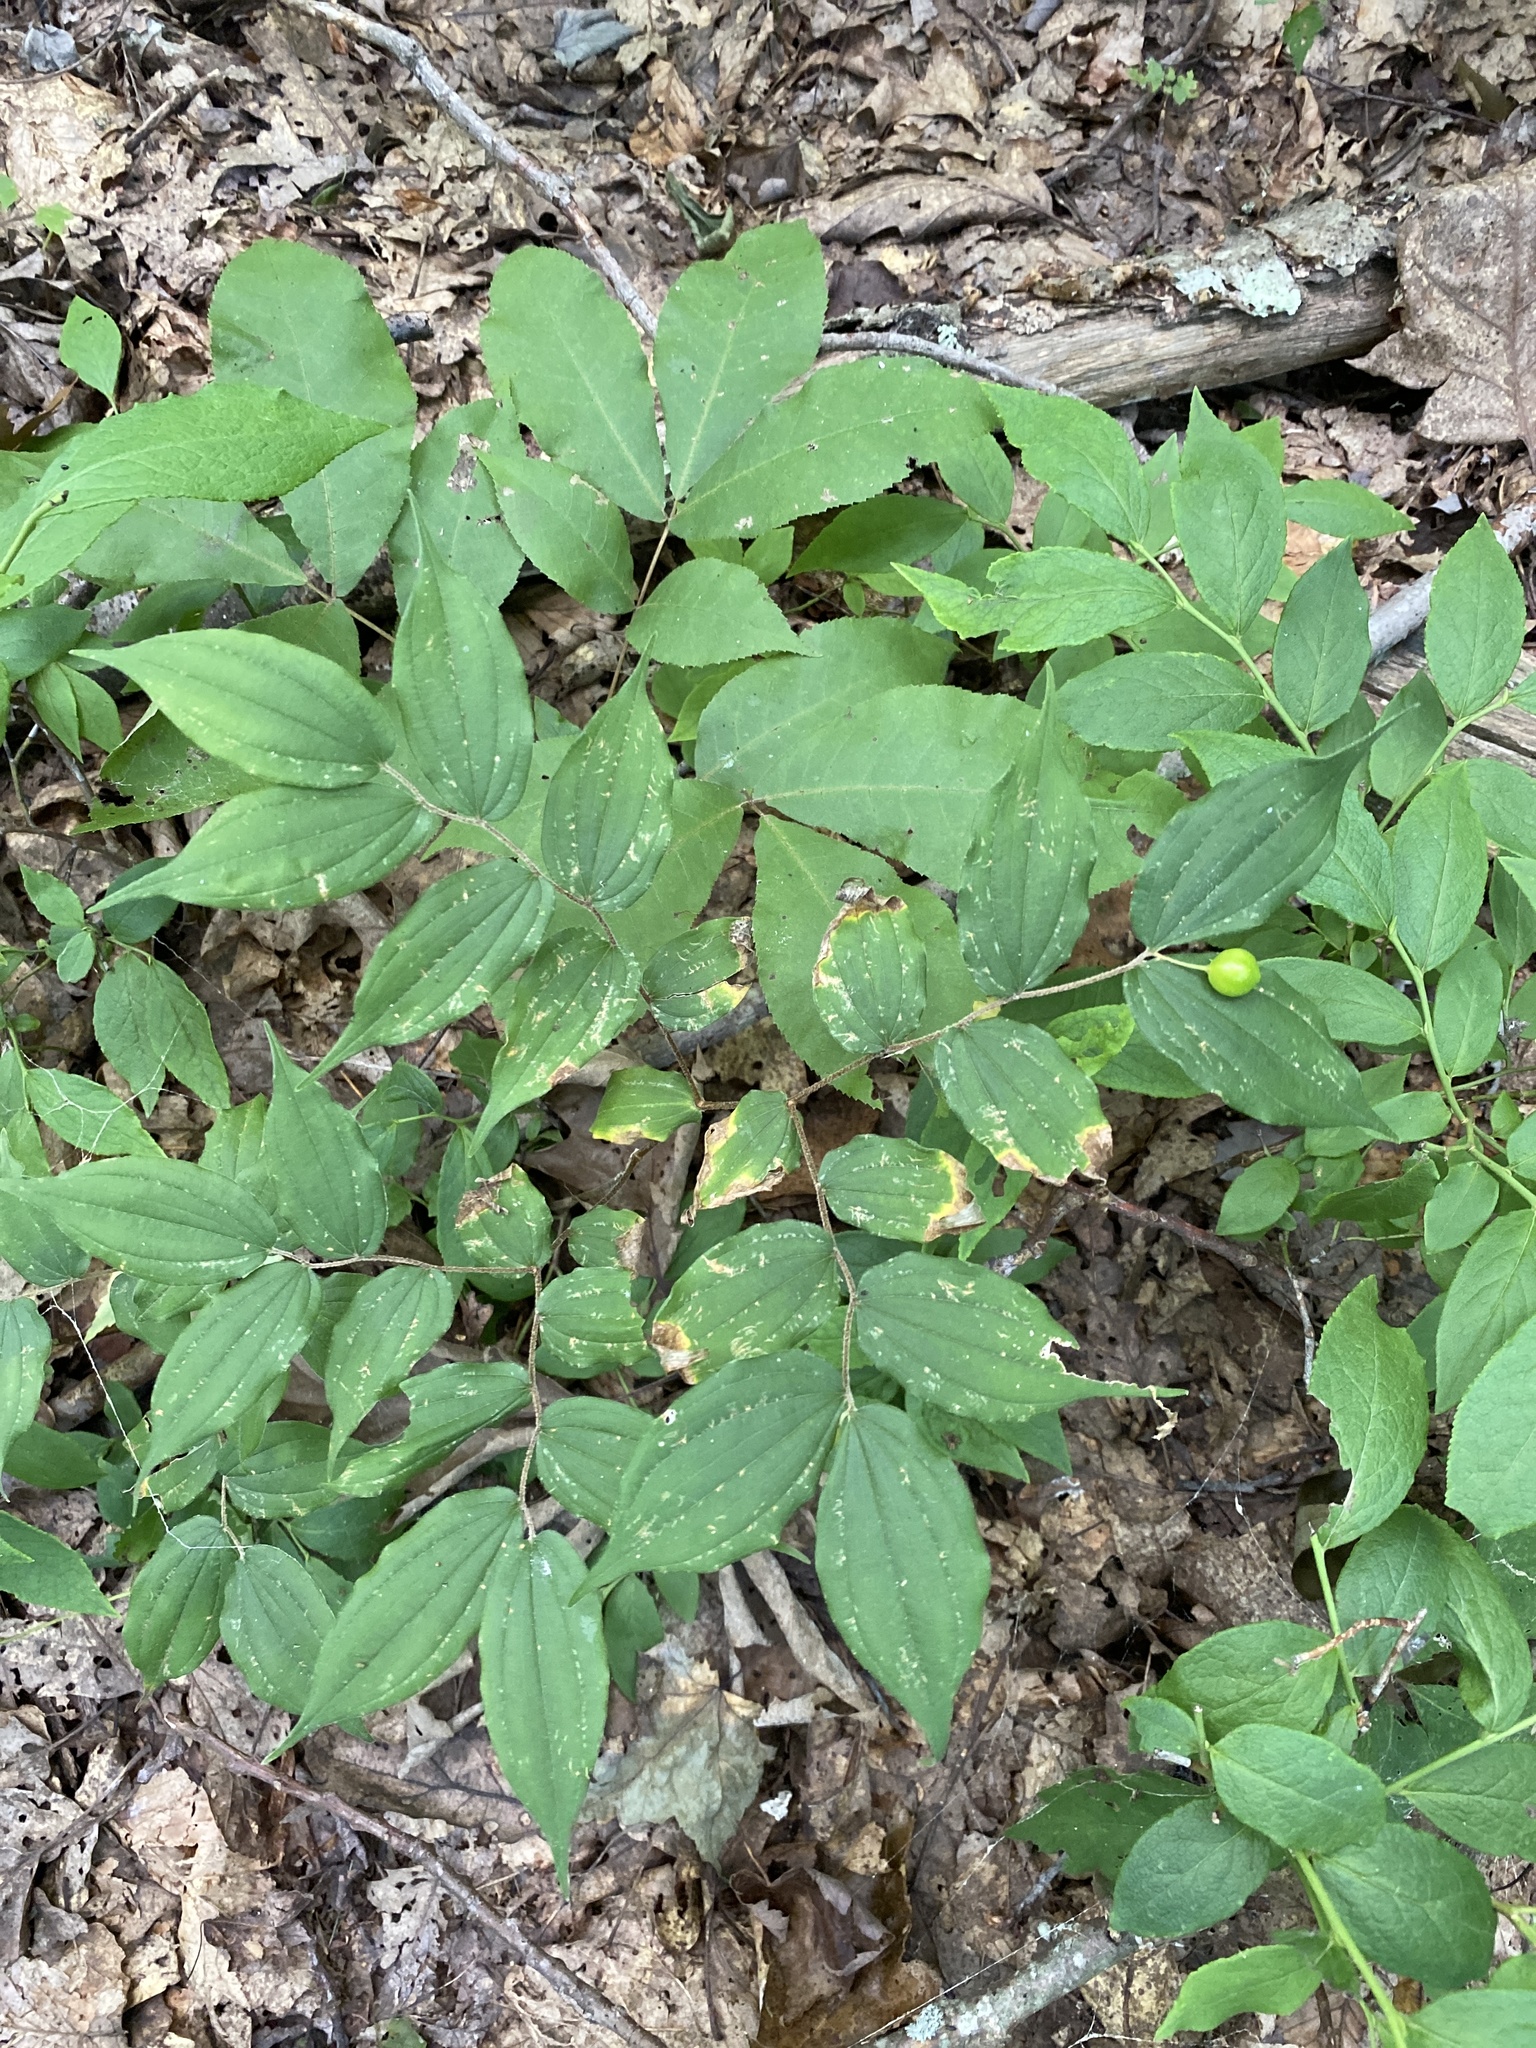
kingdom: Plantae
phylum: Tracheophyta
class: Liliopsida
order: Liliales
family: Liliaceae
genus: Prosartes
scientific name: Prosartes lanuginosa
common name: Hairy mandarin
